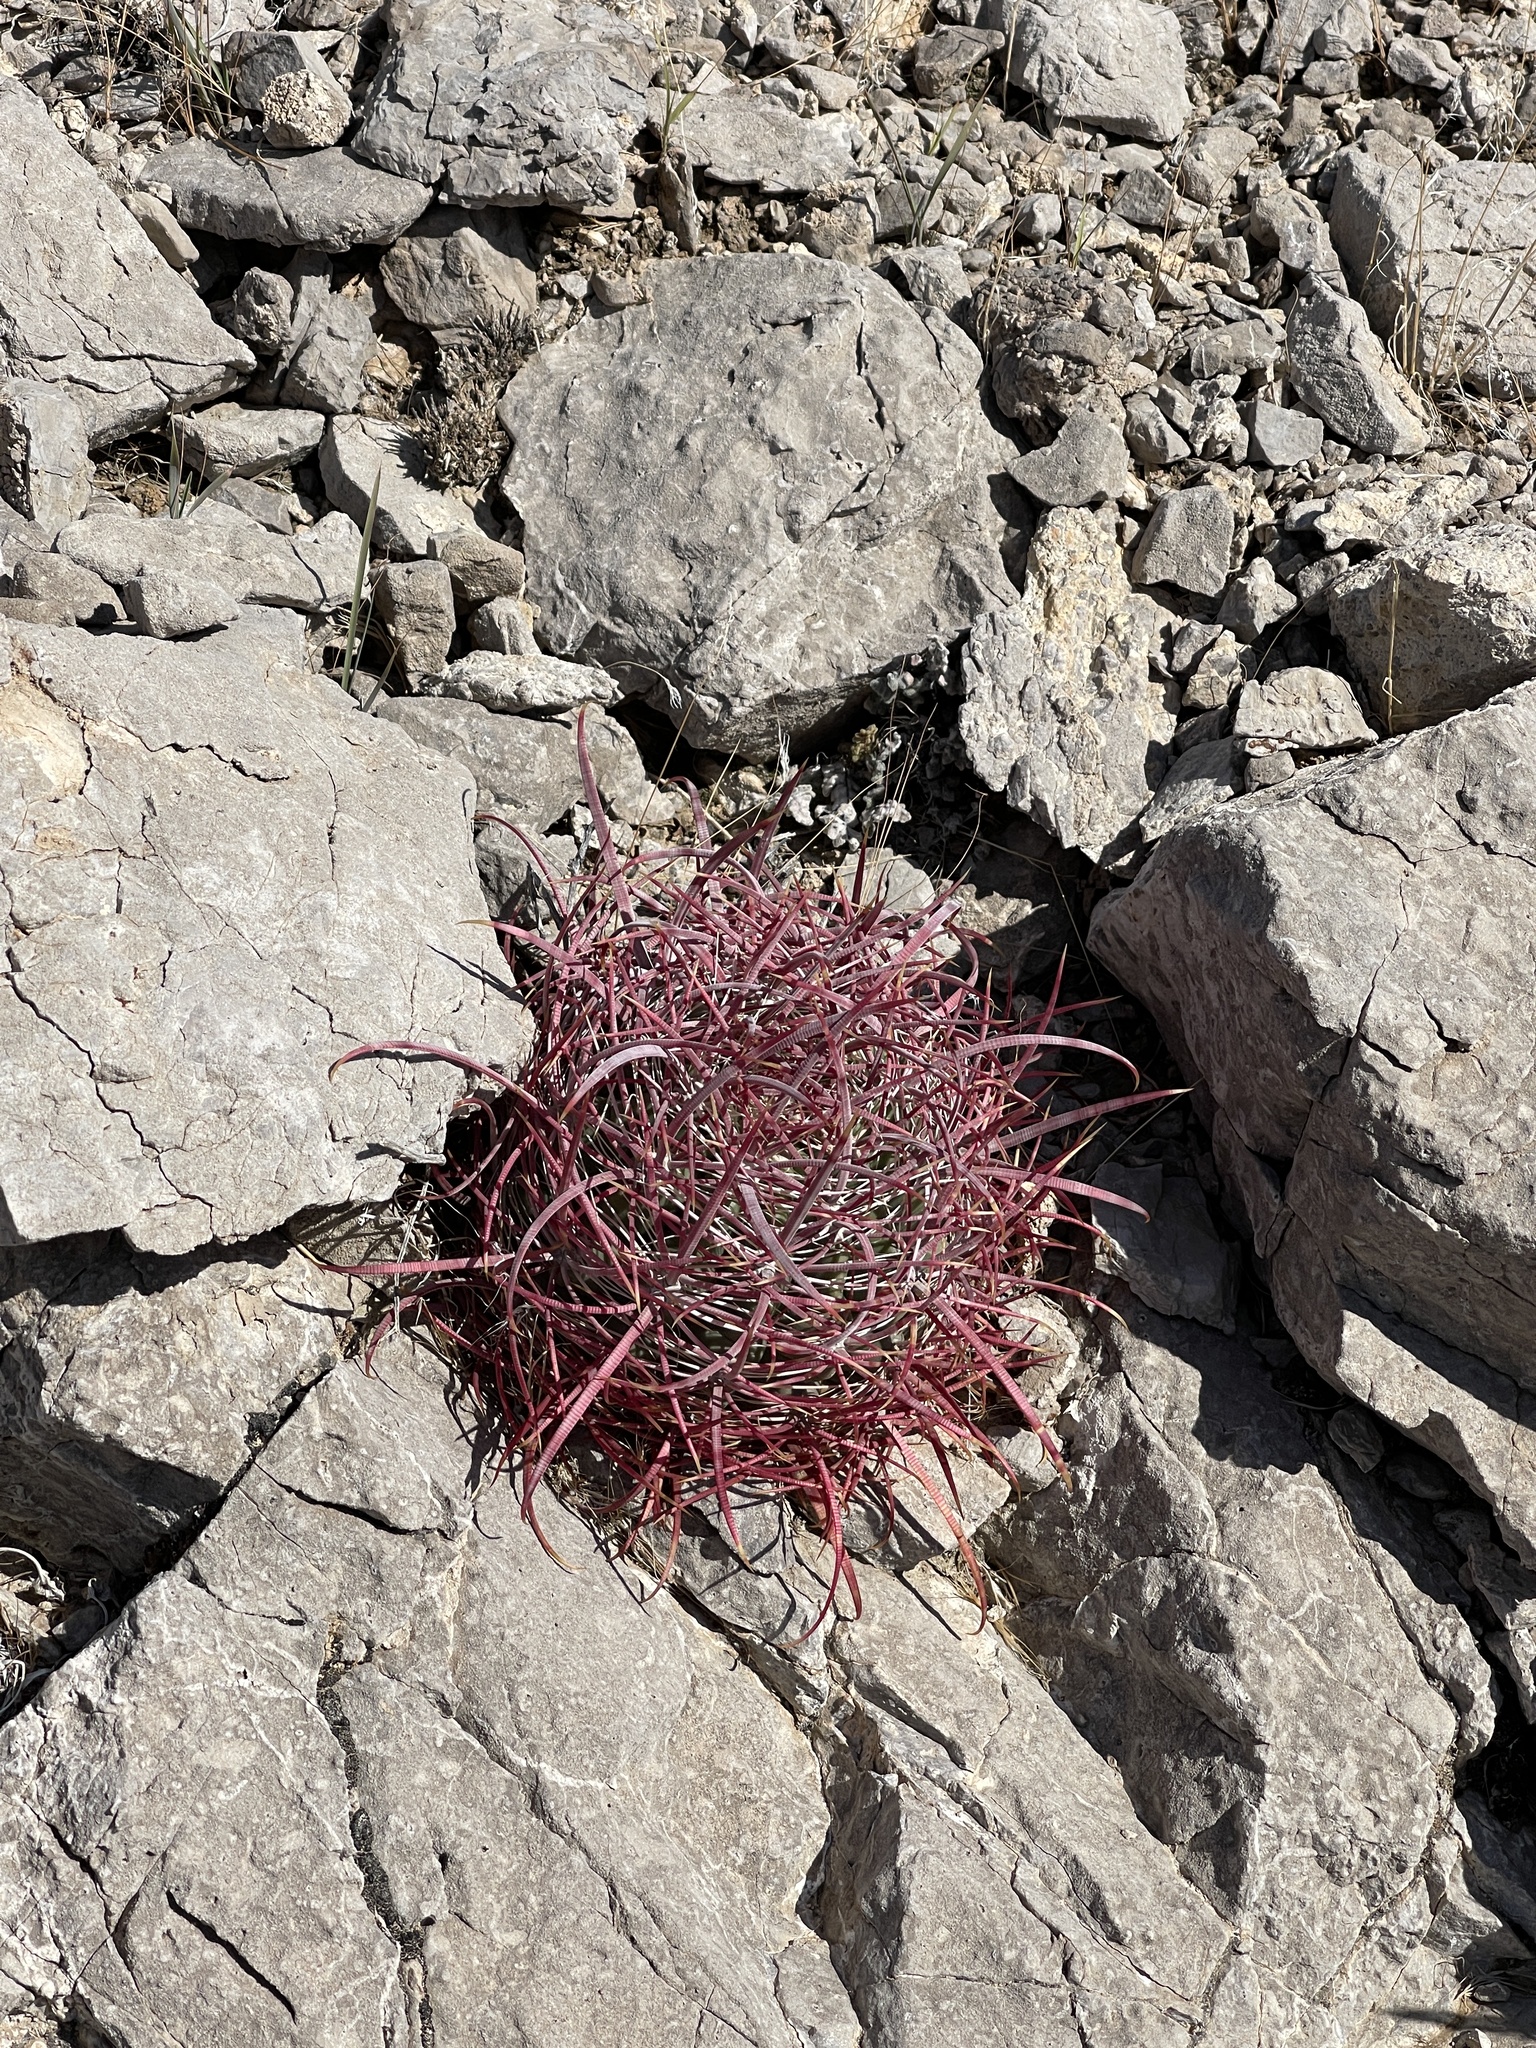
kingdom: Plantae
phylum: Tracheophyta
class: Magnoliopsida
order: Caryophyllales
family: Cactaceae
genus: Ferocactus
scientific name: Ferocactus cylindraceus
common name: California barrel cactus
